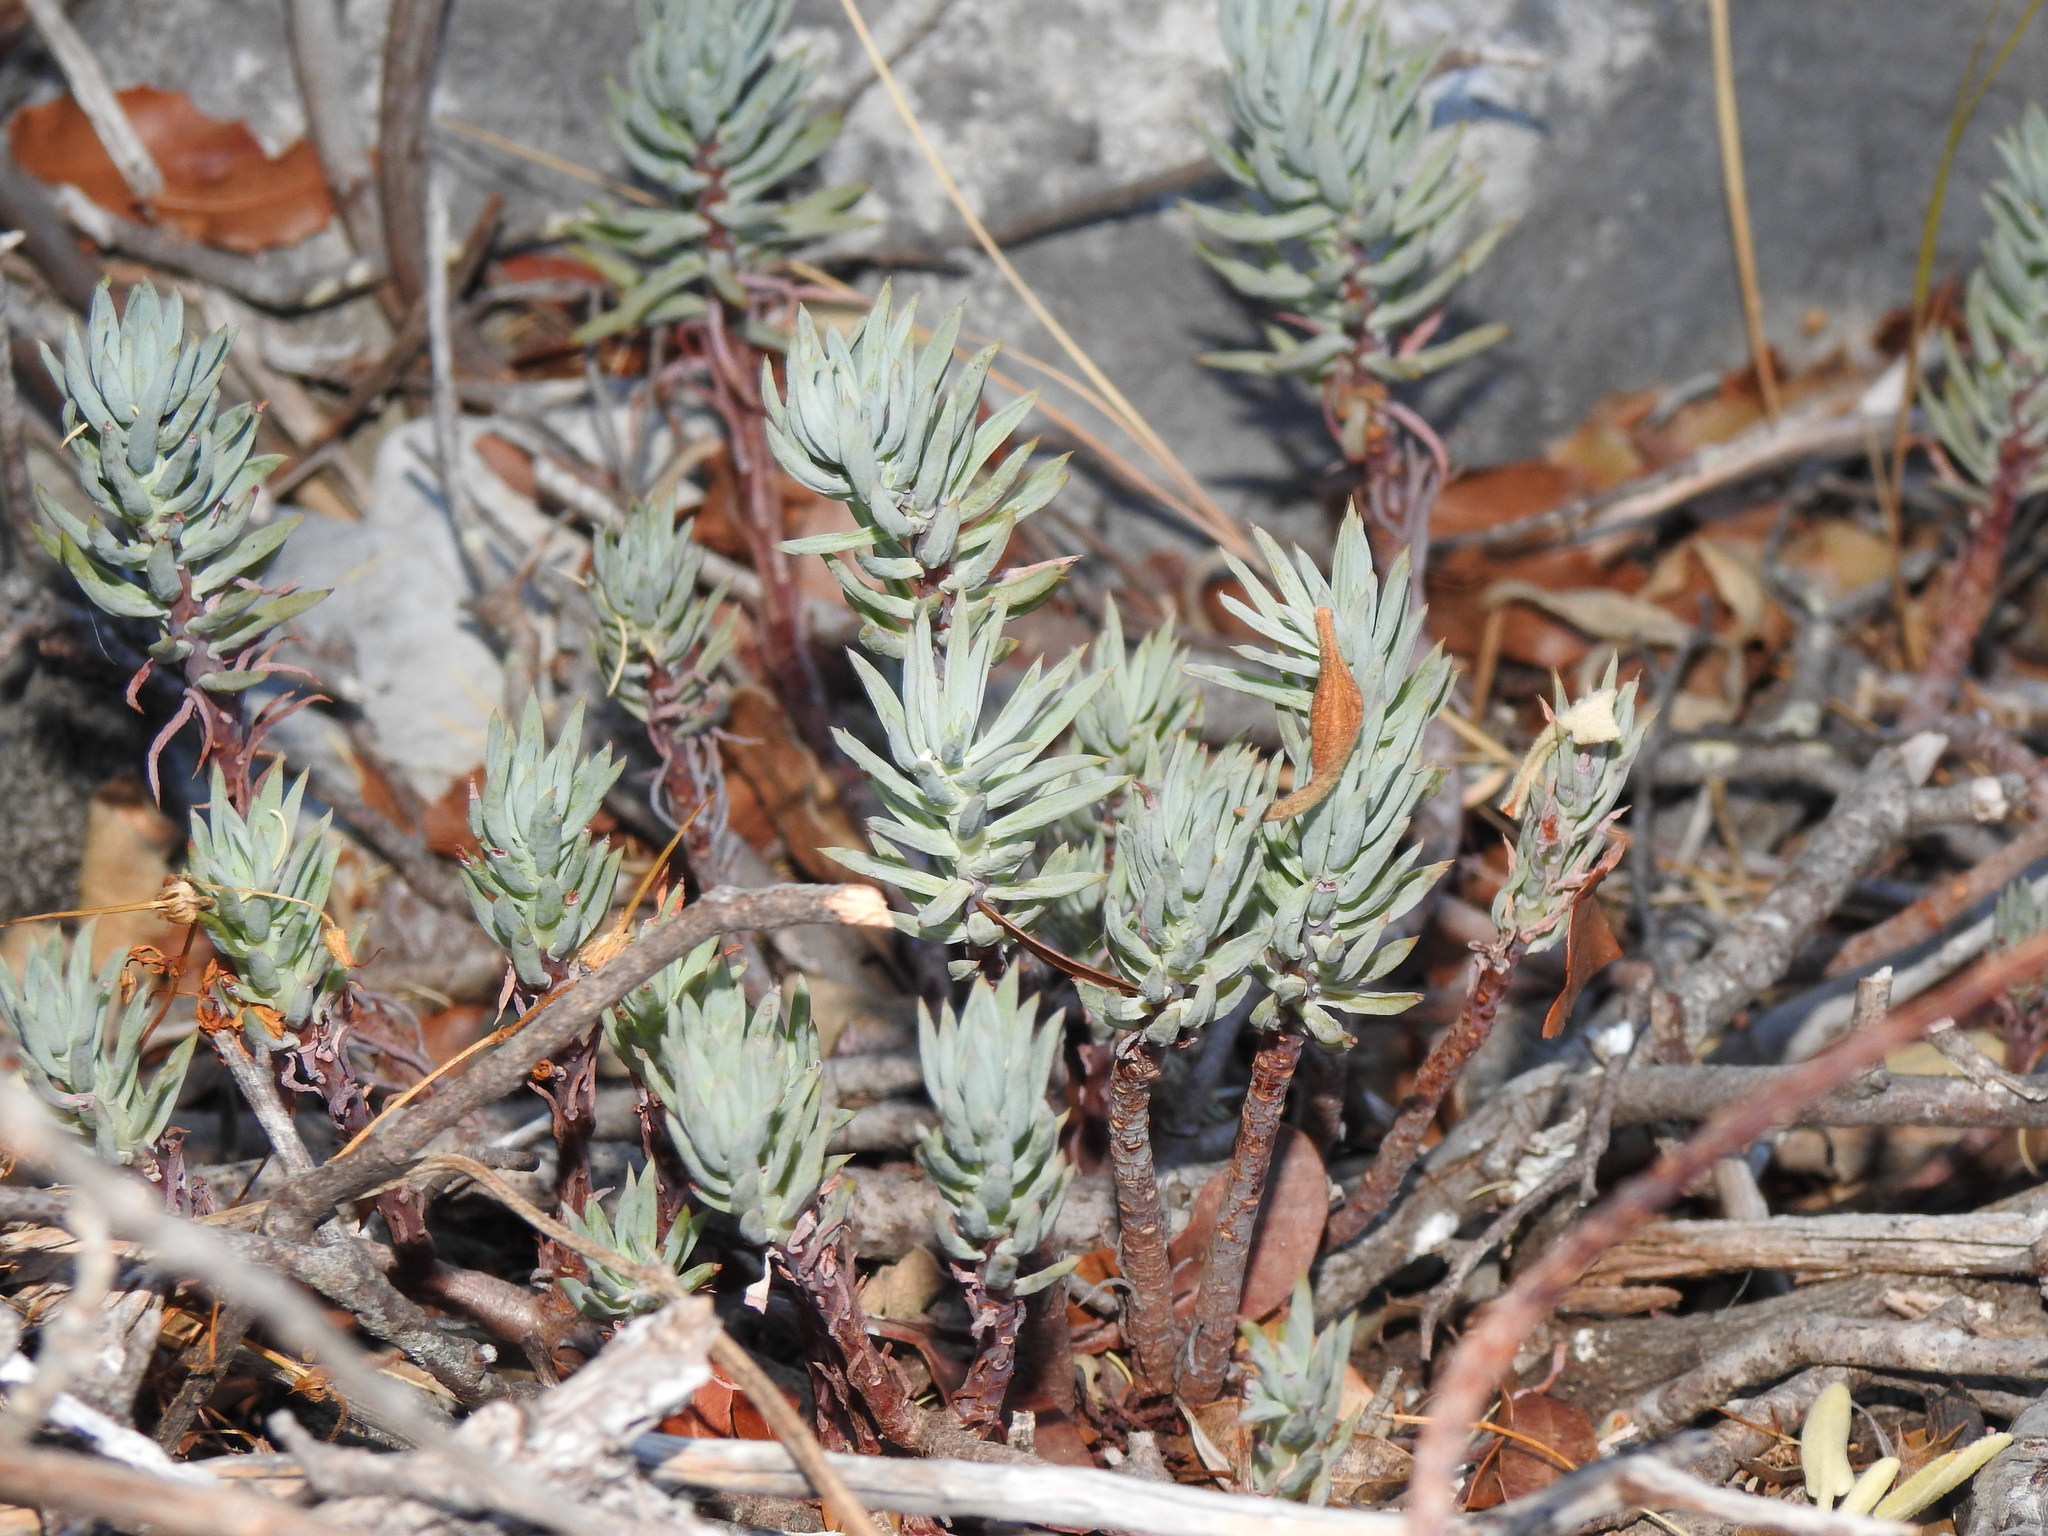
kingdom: Plantae
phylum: Tracheophyta
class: Magnoliopsida
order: Saxifragales
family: Crassulaceae
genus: Petrosedum
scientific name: Petrosedum sediforme
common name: Pale stonecrop
